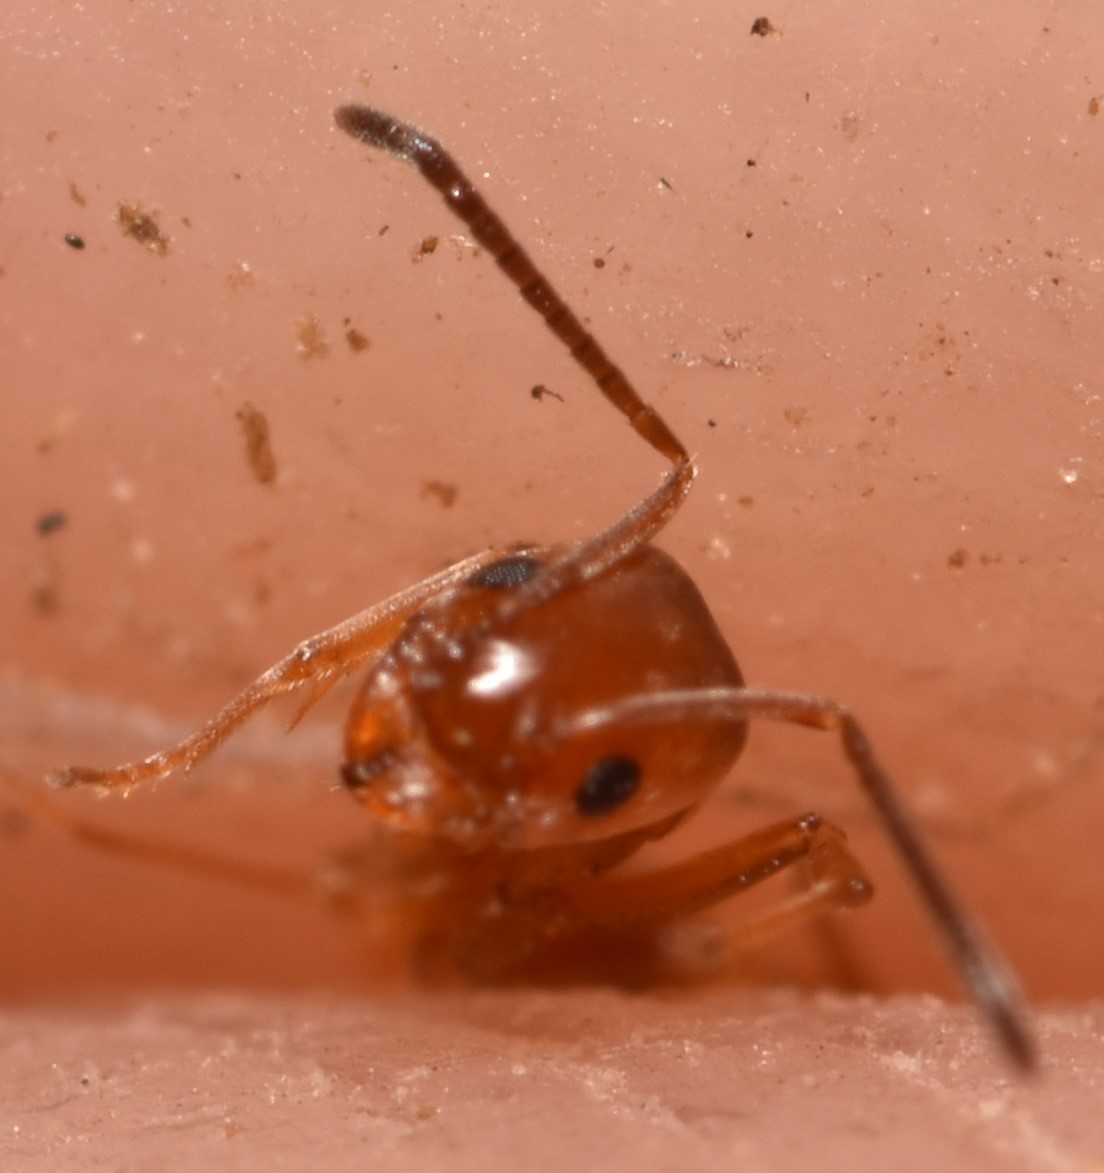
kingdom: Animalia
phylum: Arthropoda
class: Insecta
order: Hymenoptera
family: Formicidae
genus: Forelius
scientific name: Forelius pruinosus
